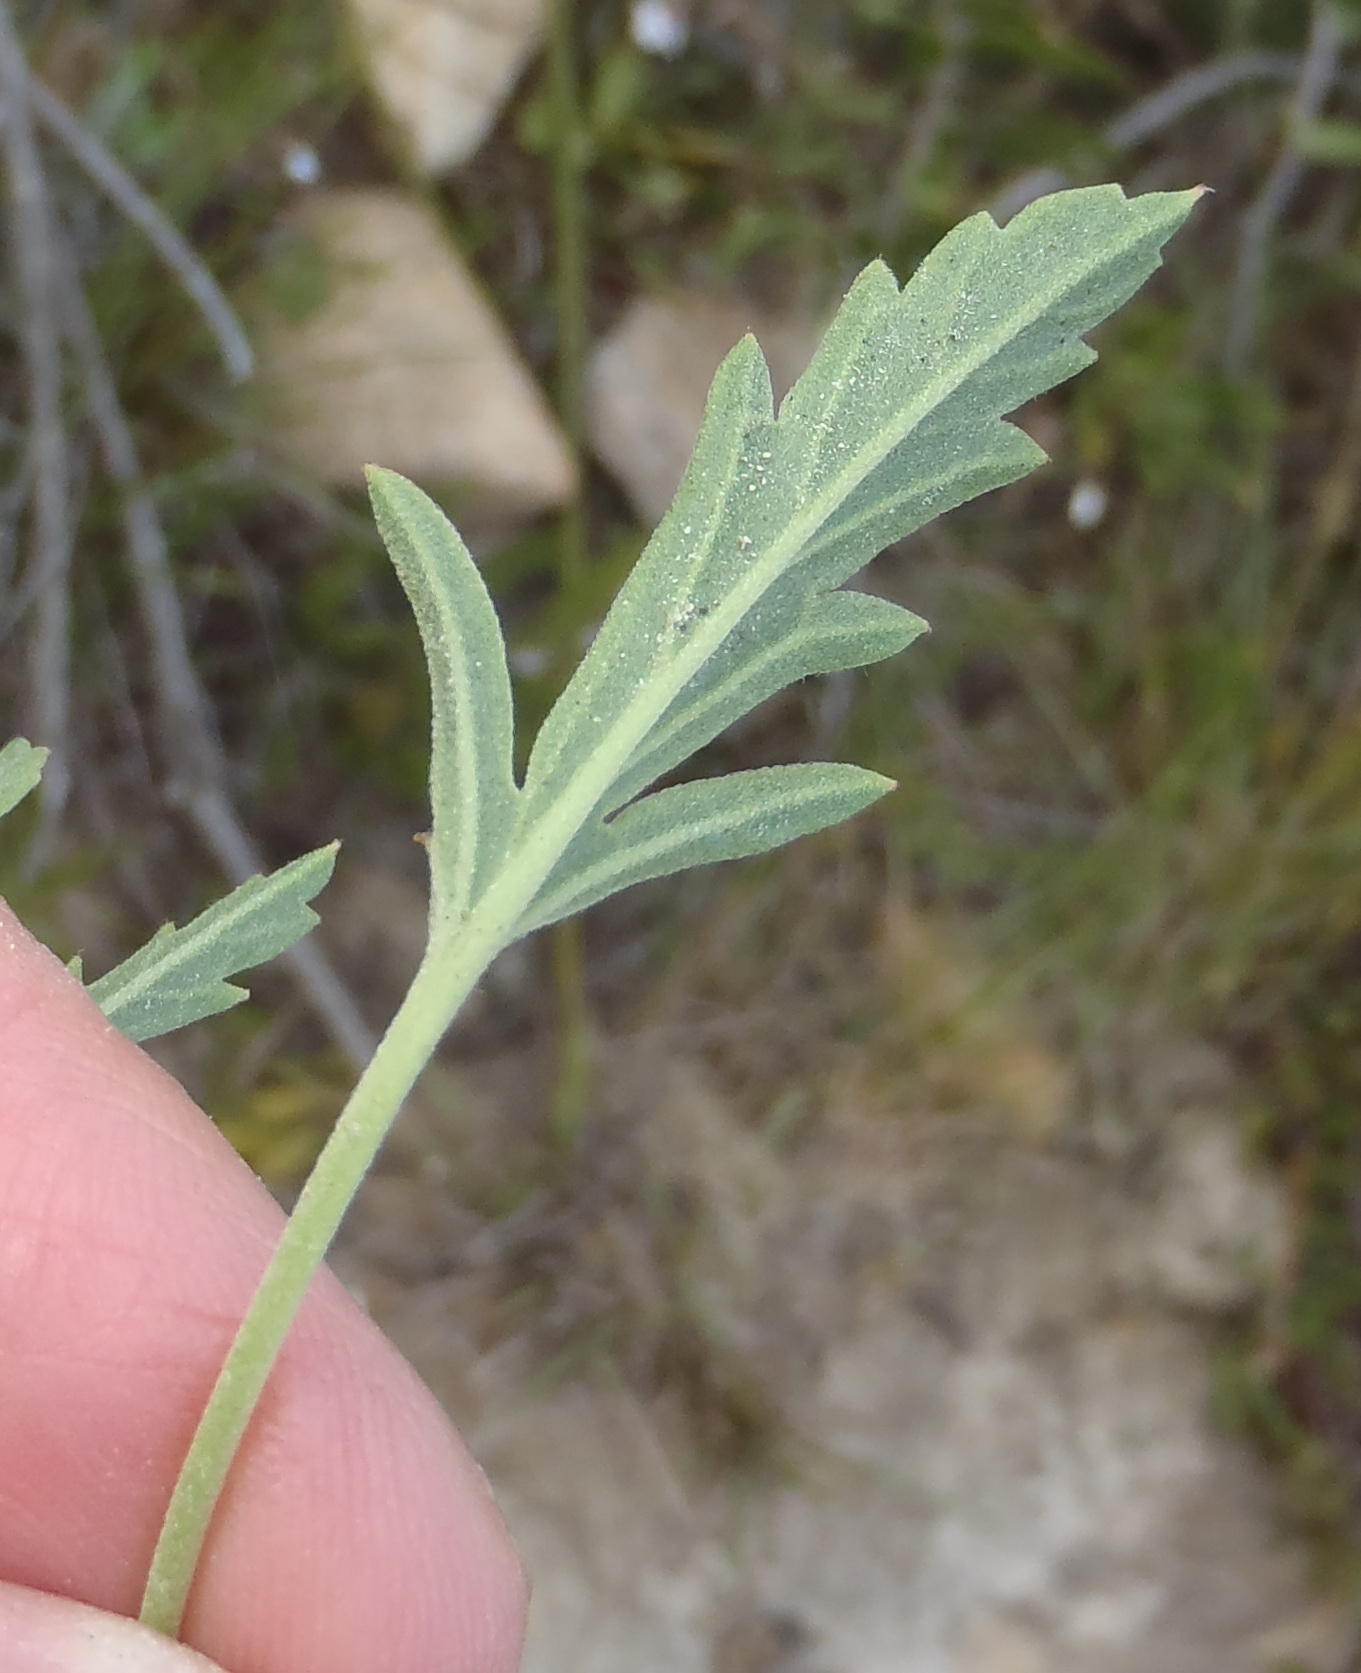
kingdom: Plantae
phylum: Tracheophyta
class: Magnoliopsida
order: Geraniales
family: Geraniaceae
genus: Pelargonium
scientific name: Pelargonium tricolor
